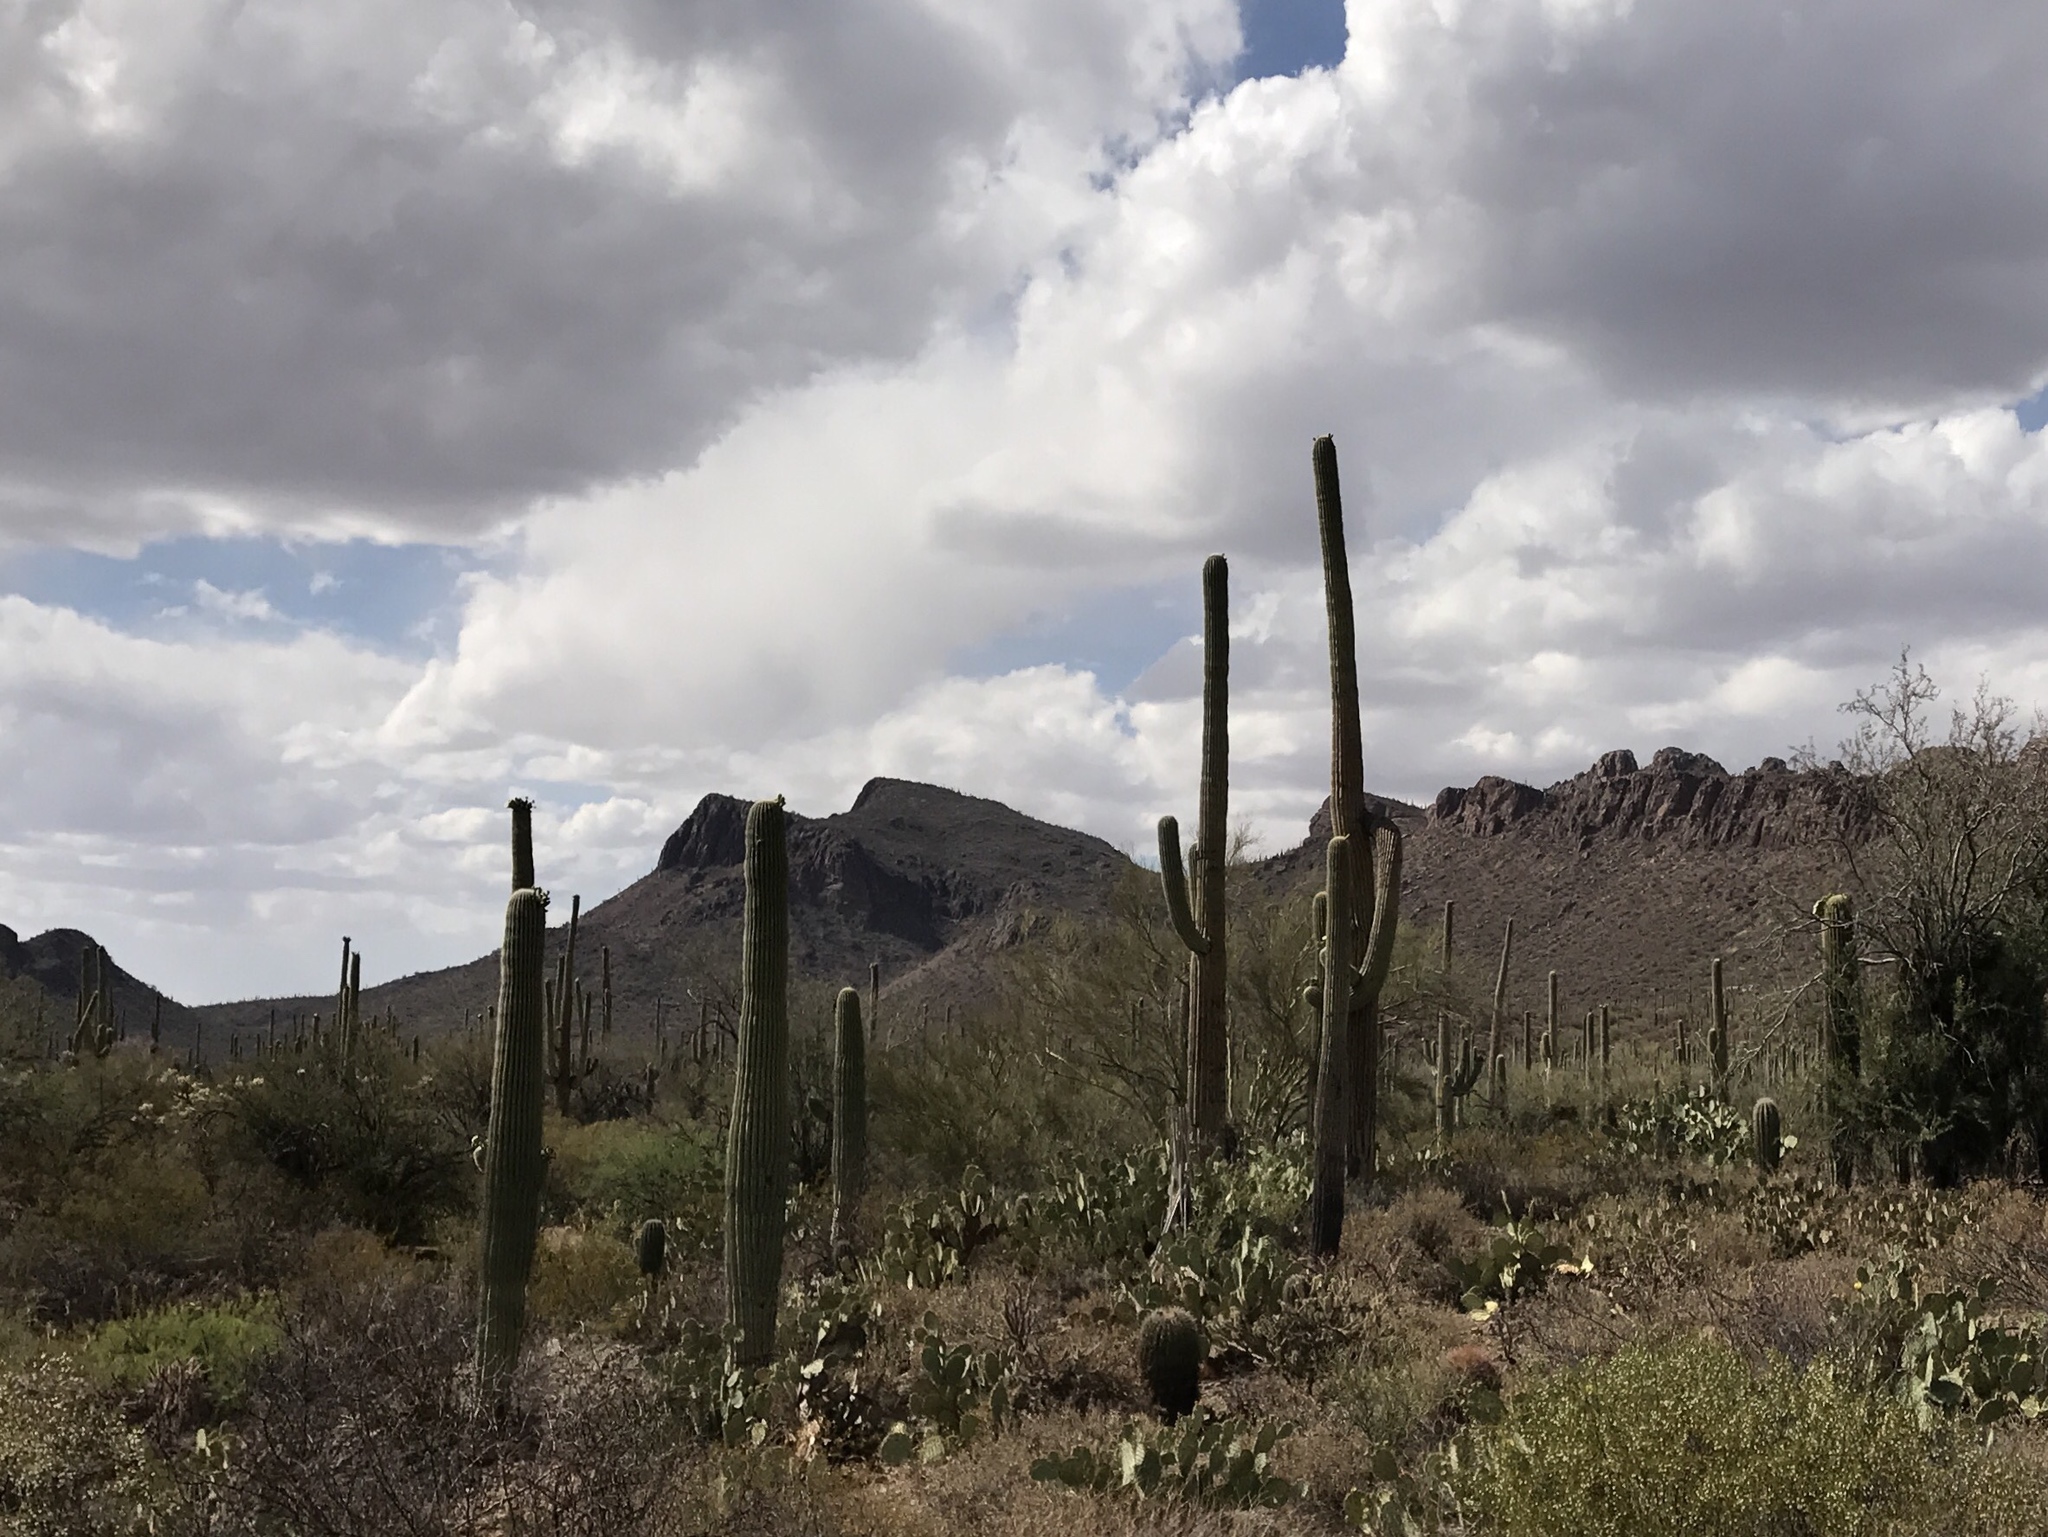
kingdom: Plantae
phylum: Tracheophyta
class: Magnoliopsida
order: Caryophyllales
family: Cactaceae
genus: Carnegiea
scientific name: Carnegiea gigantea
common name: Saguaro
